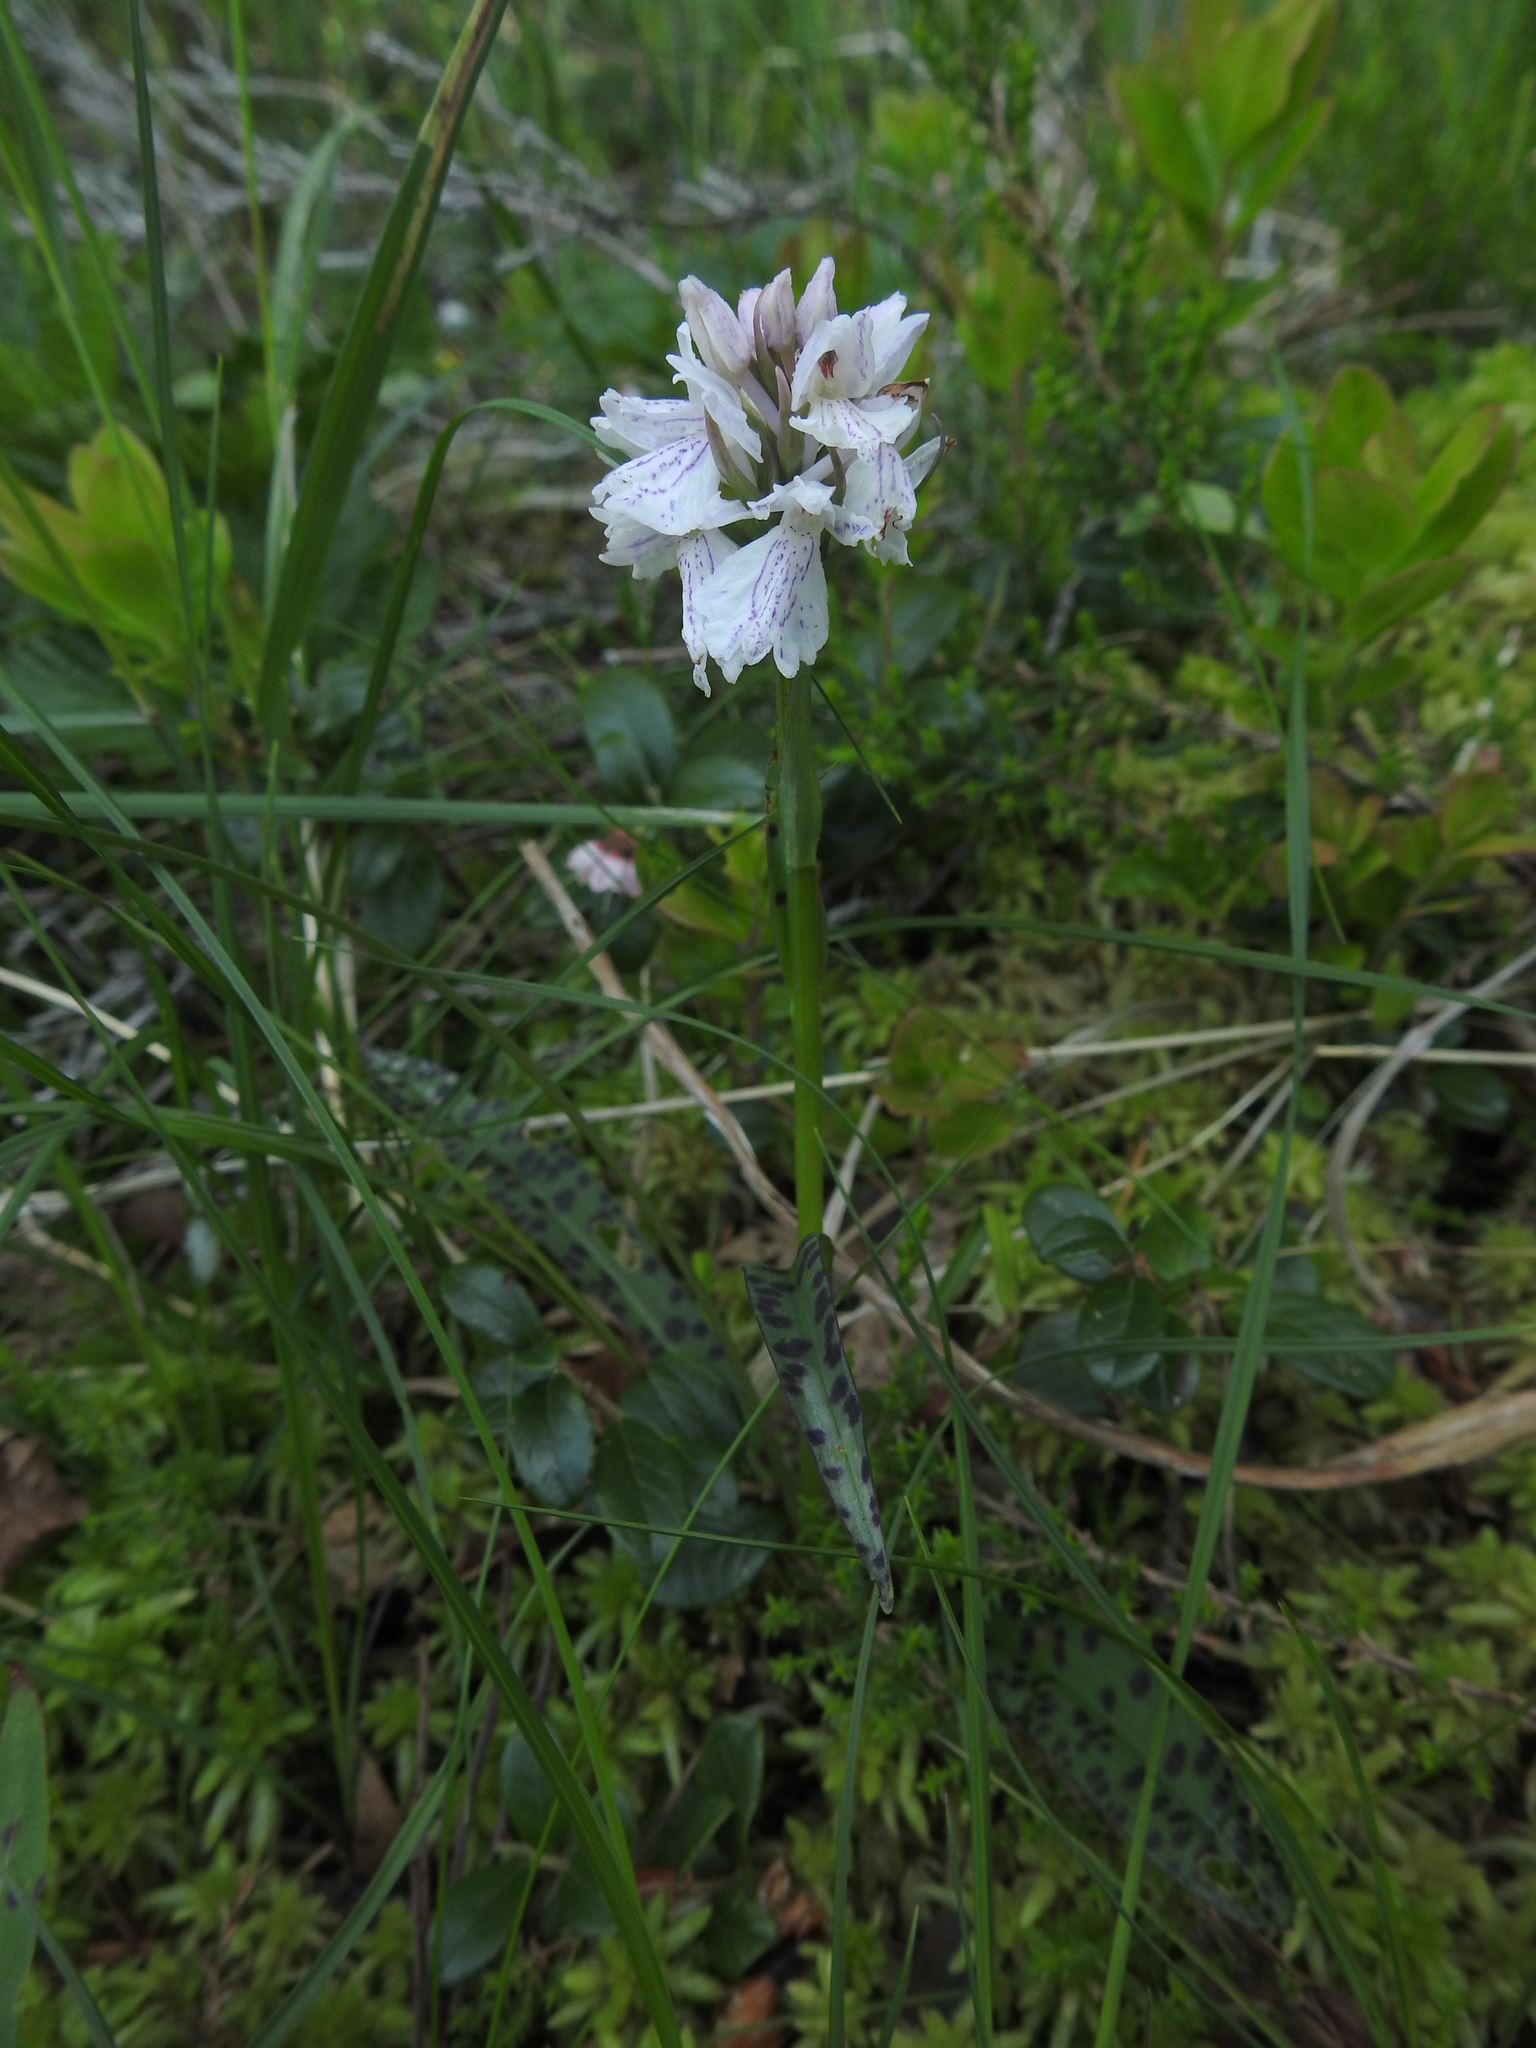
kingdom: Plantae
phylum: Tracheophyta
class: Liliopsida
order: Asparagales
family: Orchidaceae
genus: Dactylorhiza
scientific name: Dactylorhiza maculata
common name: Heath spotted-orchid
